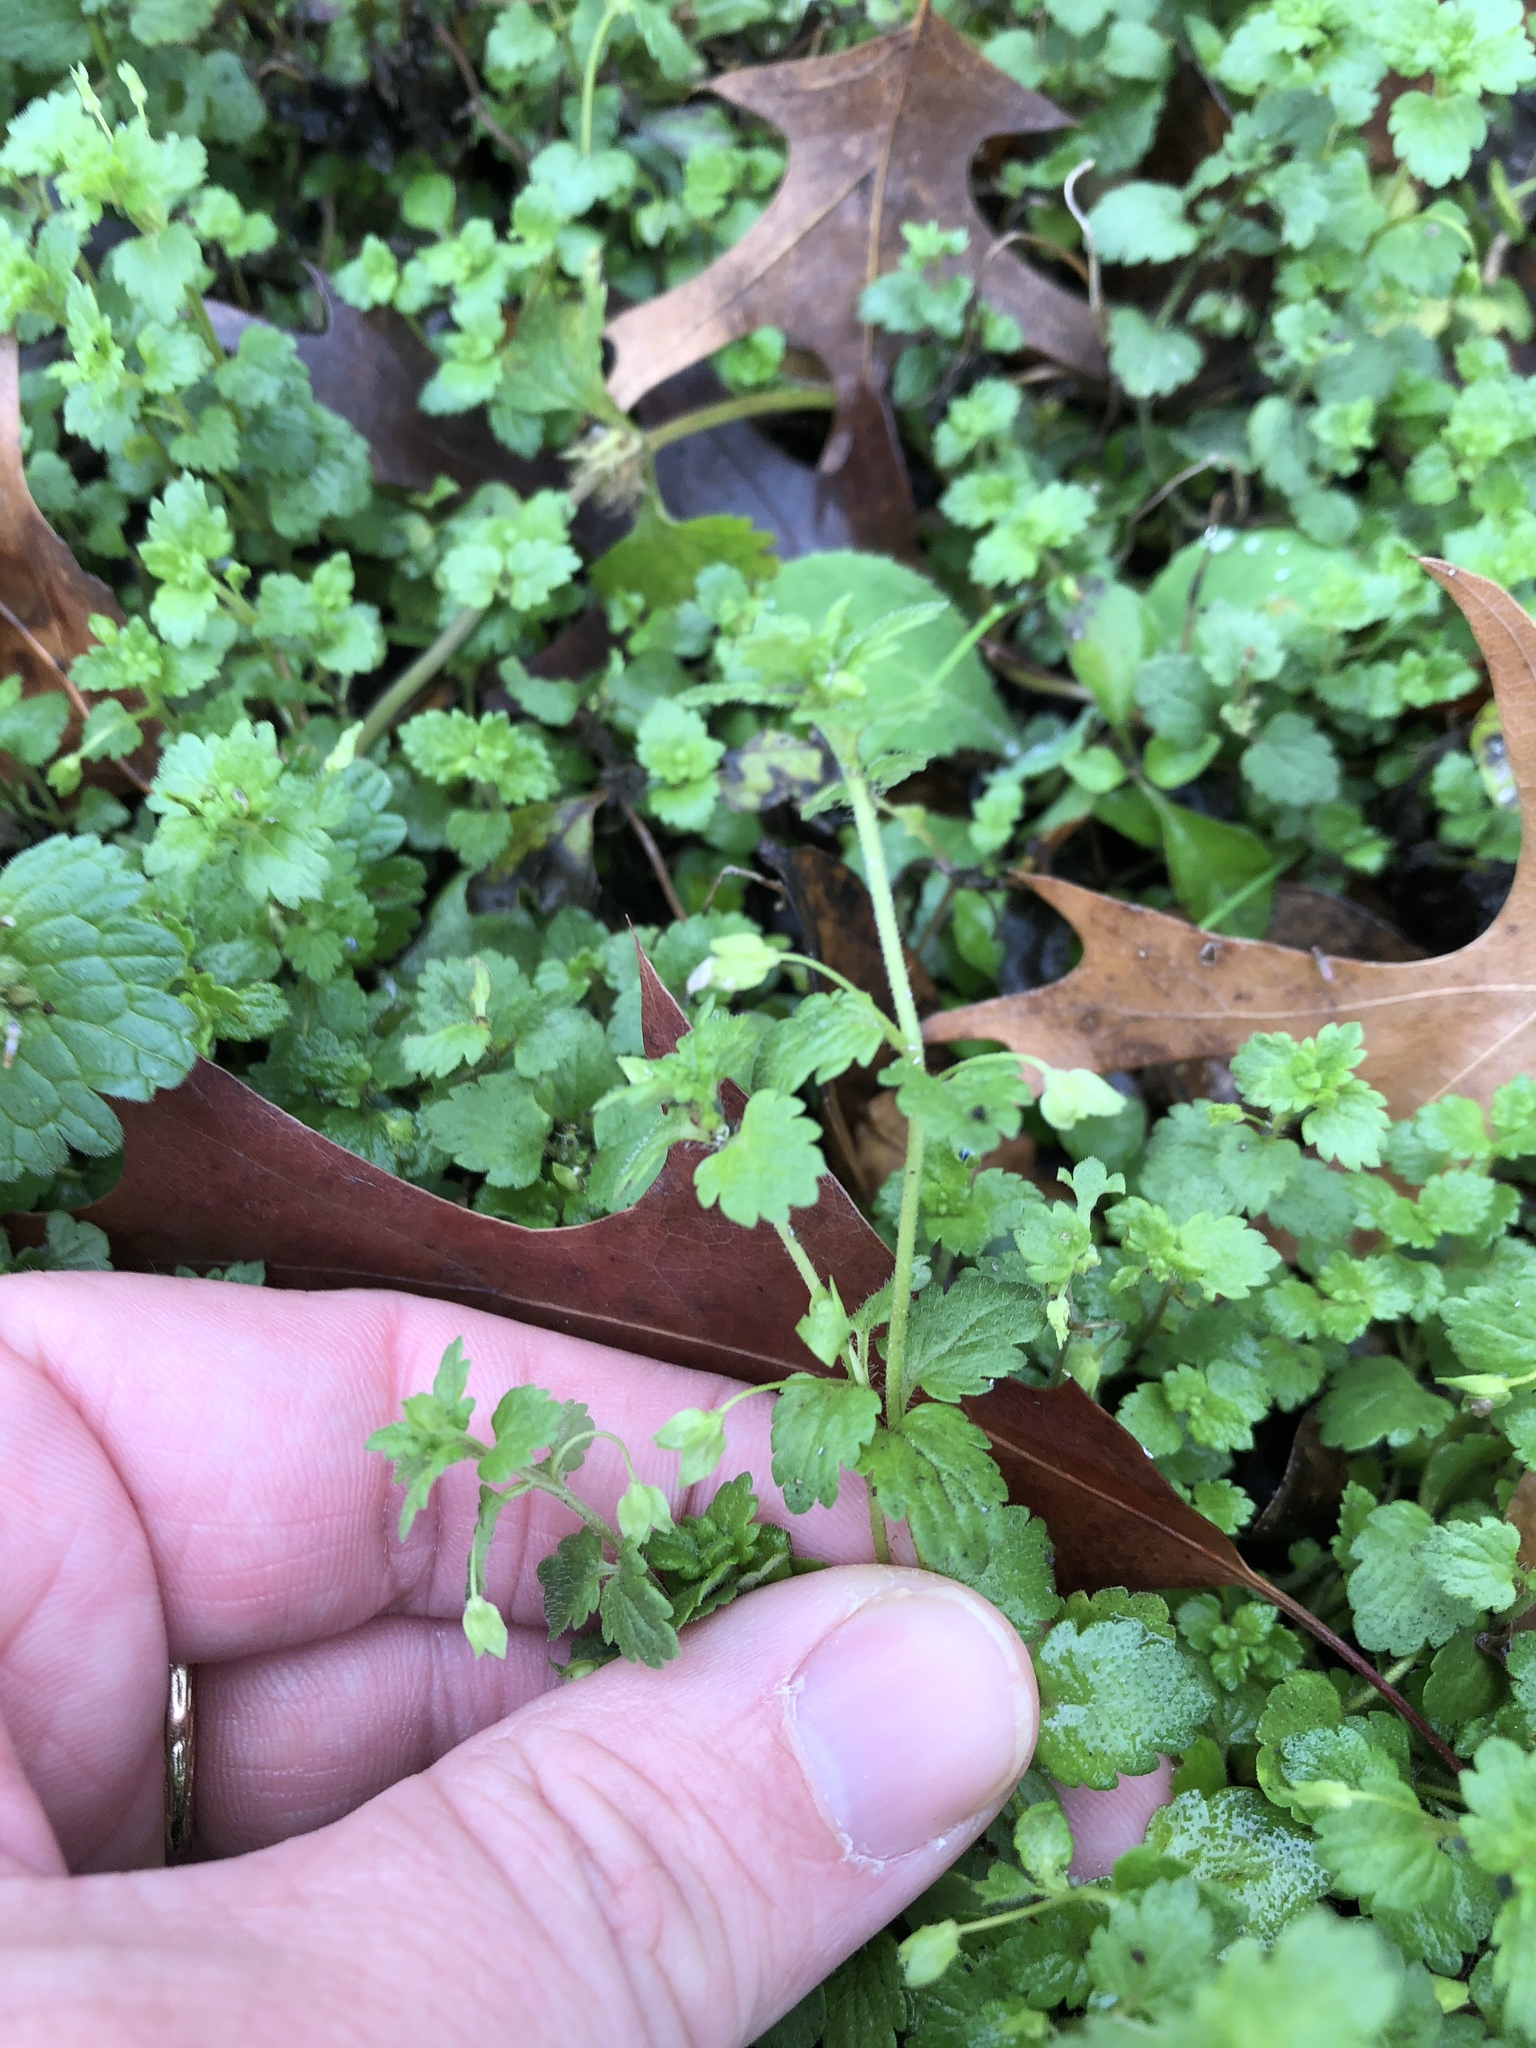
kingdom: Plantae
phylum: Tracheophyta
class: Magnoliopsida
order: Lamiales
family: Plantaginaceae
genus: Veronica
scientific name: Veronica polita
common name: Grey field-speedwell
